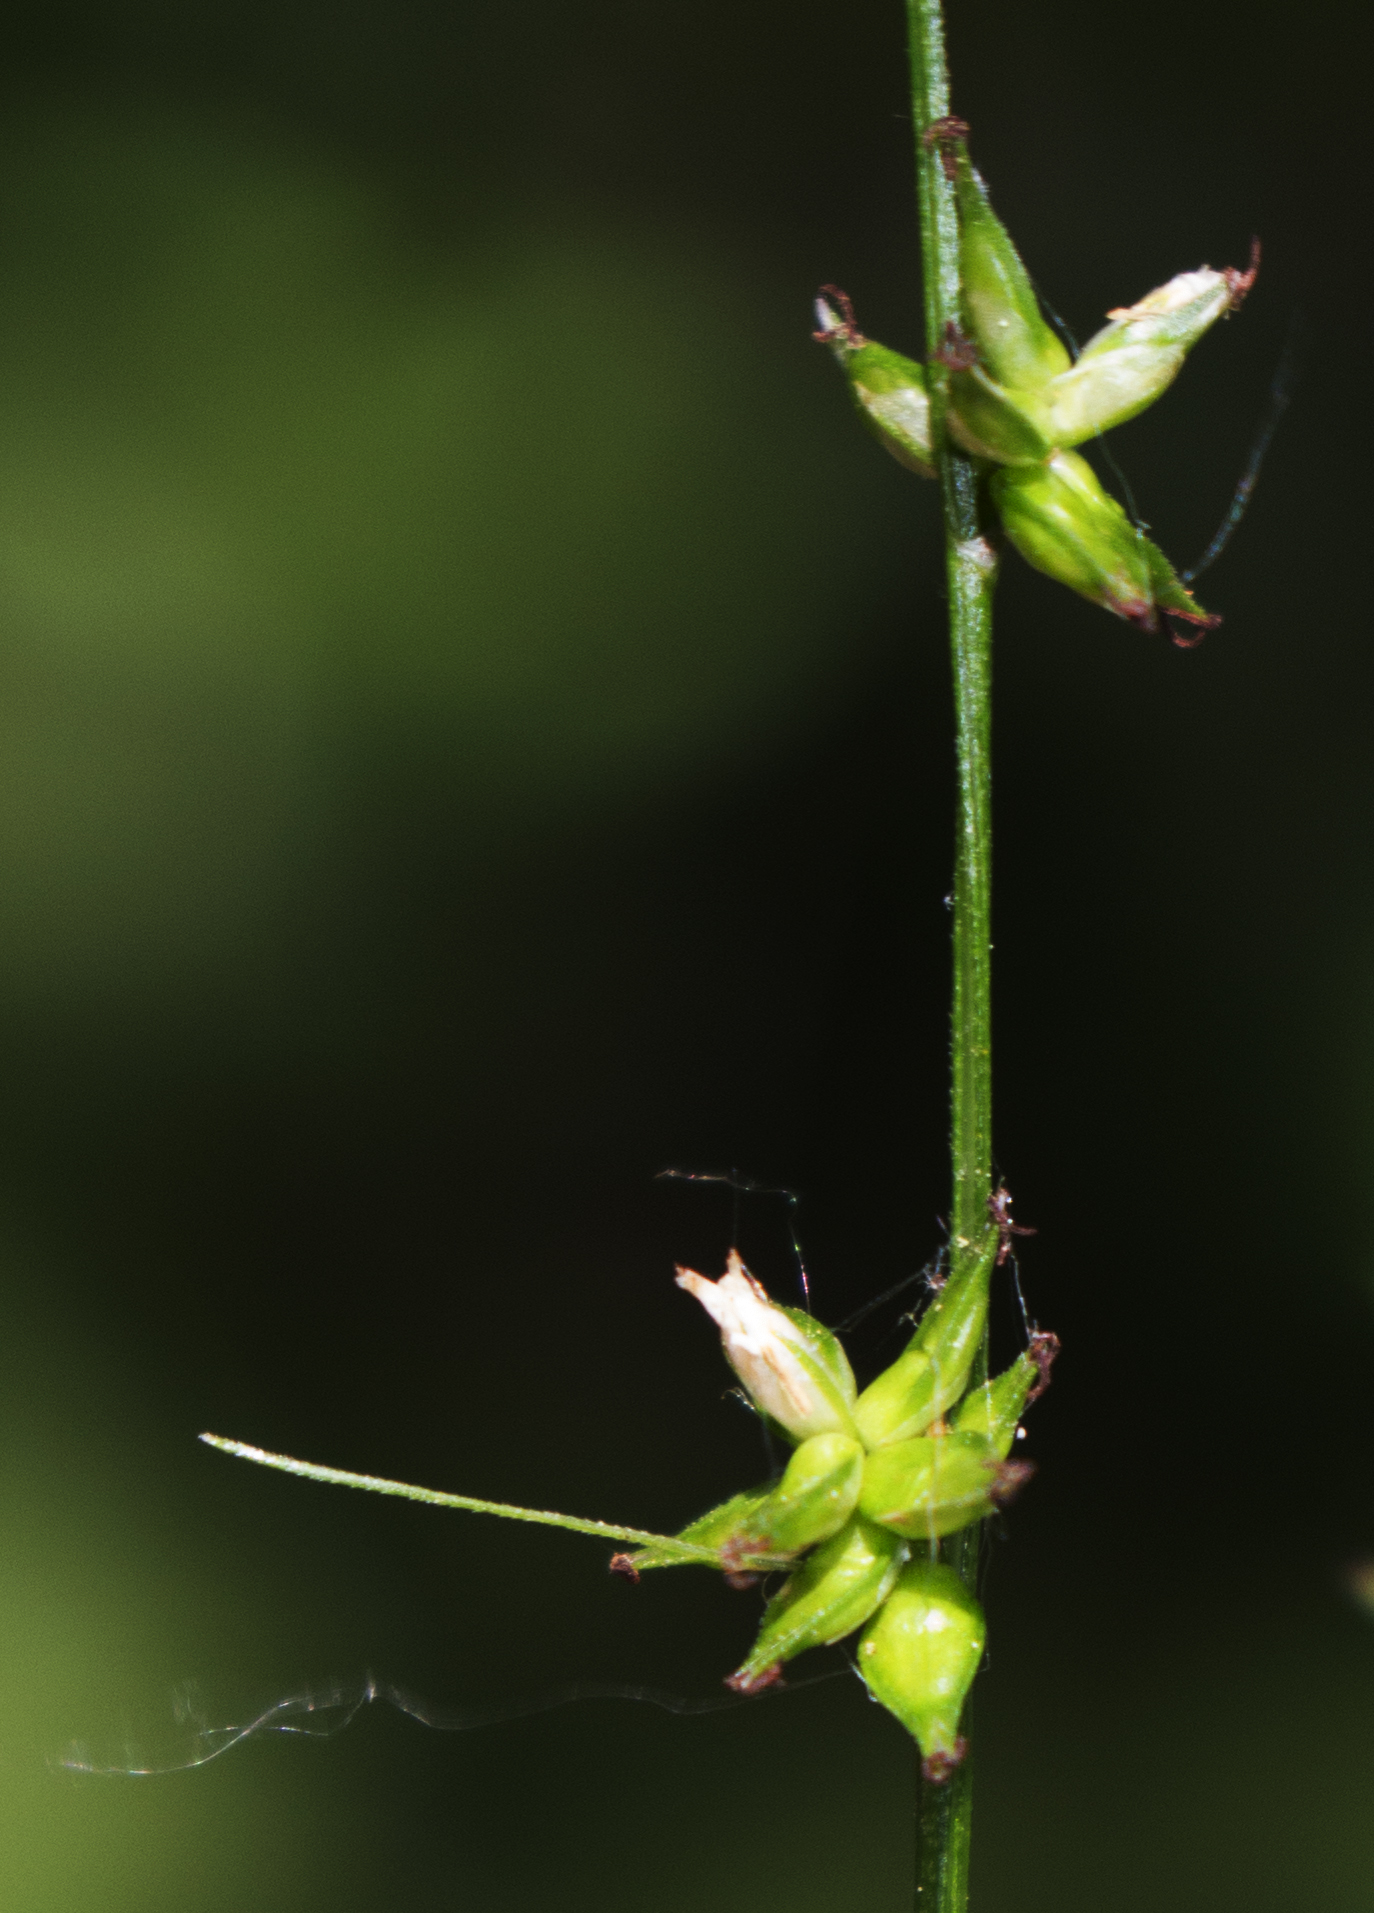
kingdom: Plantae
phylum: Tracheophyta
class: Liliopsida
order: Poales
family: Cyperaceae
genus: Carex
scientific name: Carex radiata
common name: Eastern star sedge
